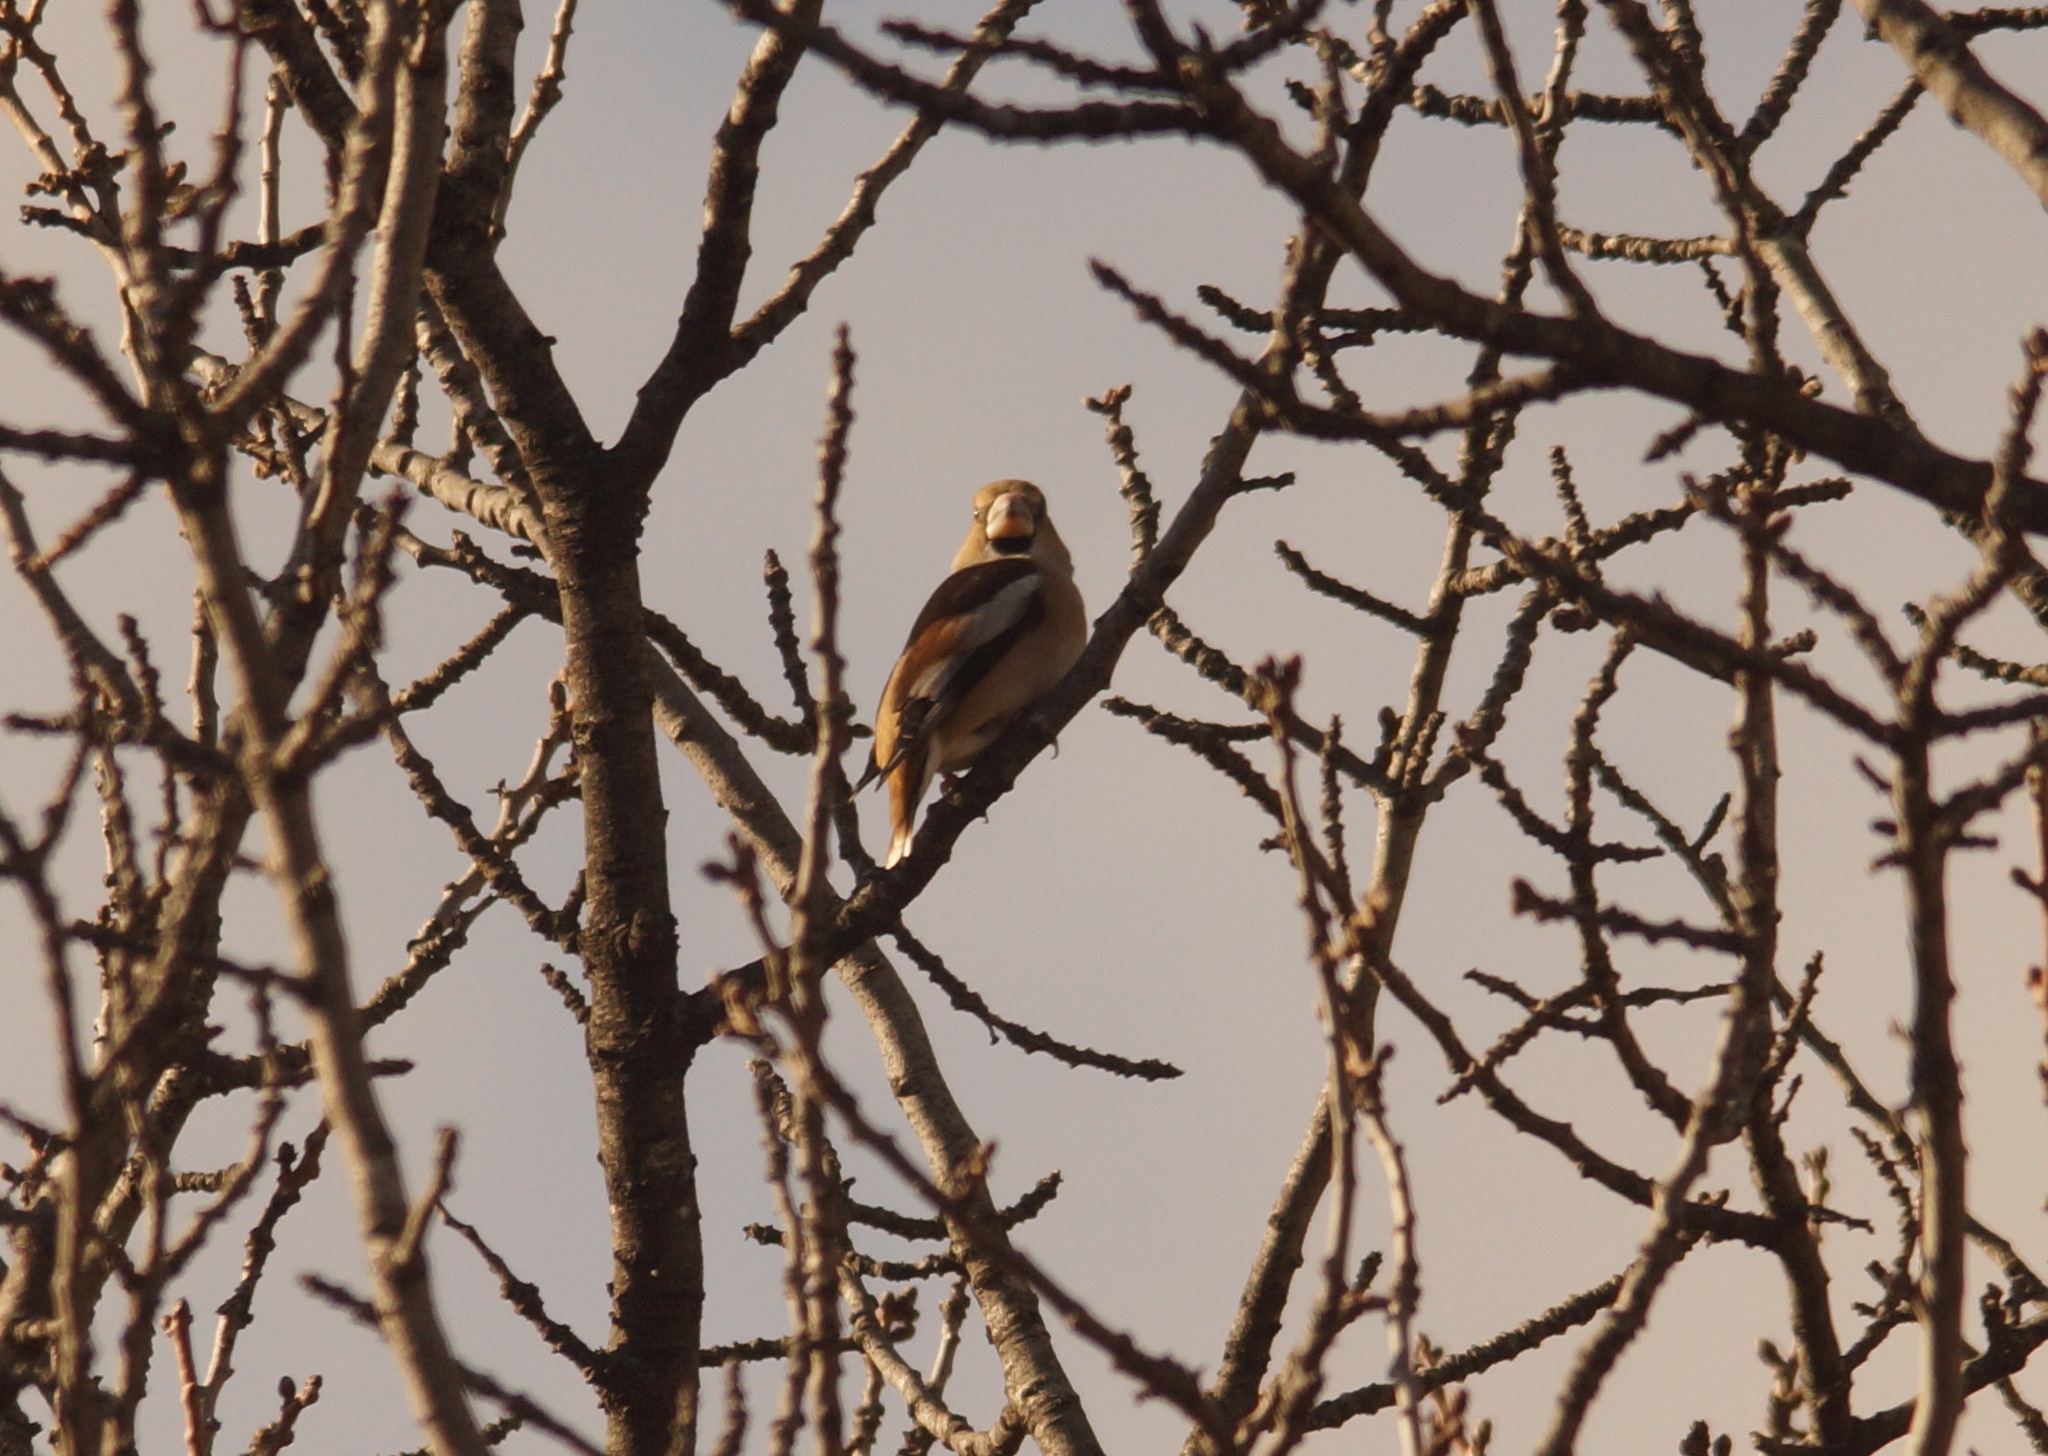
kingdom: Animalia
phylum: Chordata
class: Aves
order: Passeriformes
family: Fringillidae
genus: Coccothraustes
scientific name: Coccothraustes coccothraustes
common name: Hawfinch
